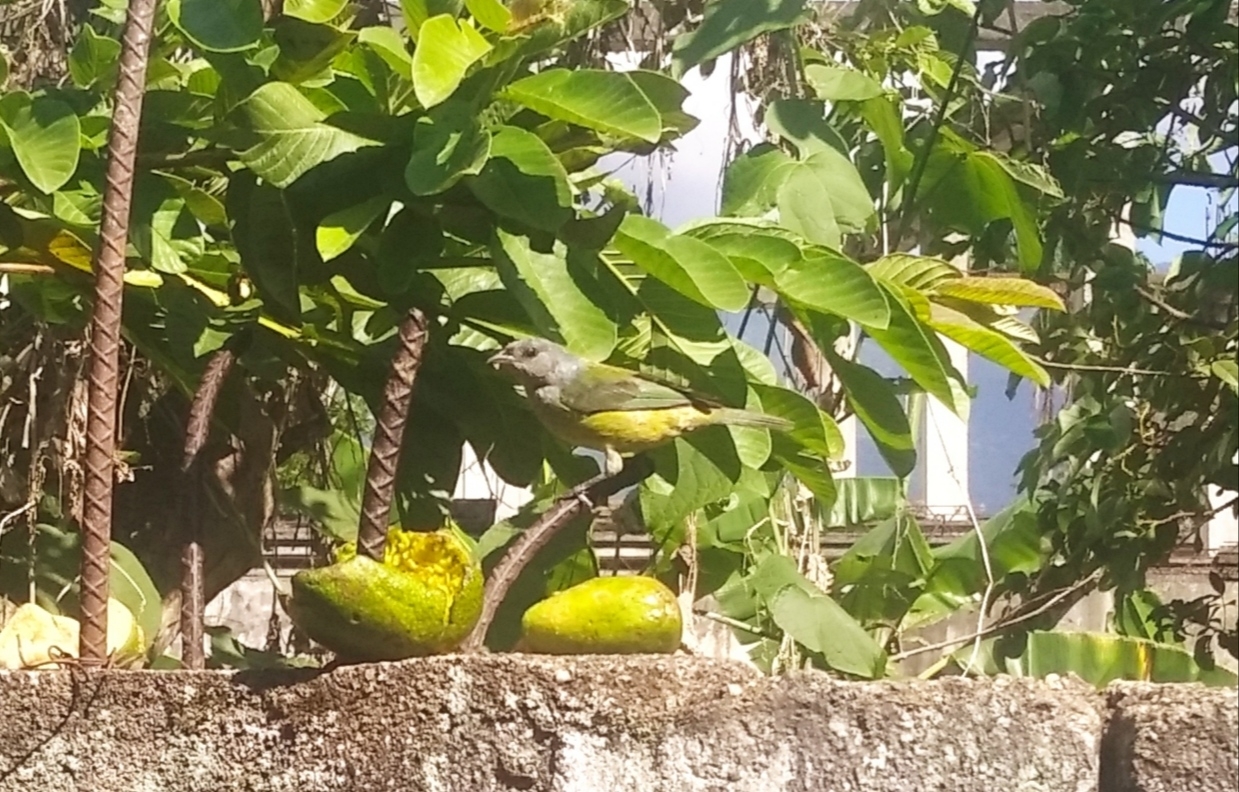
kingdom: Animalia
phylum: Chordata
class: Aves
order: Passeriformes
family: Thraupidae
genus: Stilpnia
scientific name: Stilpnia cyanoptera
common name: Black-headed tanager
